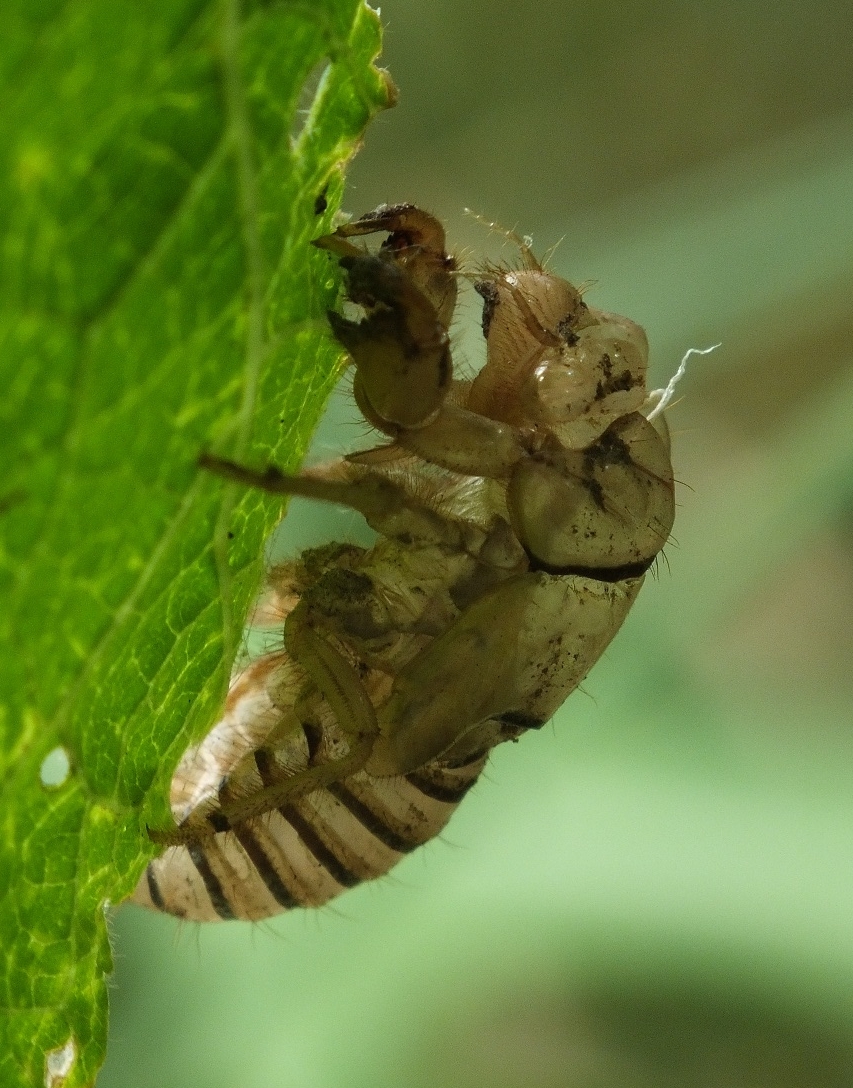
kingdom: Animalia
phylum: Arthropoda
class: Insecta
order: Hemiptera
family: Cicadidae
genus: Cicadetta
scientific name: Cicadetta montana
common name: New forest cicada
